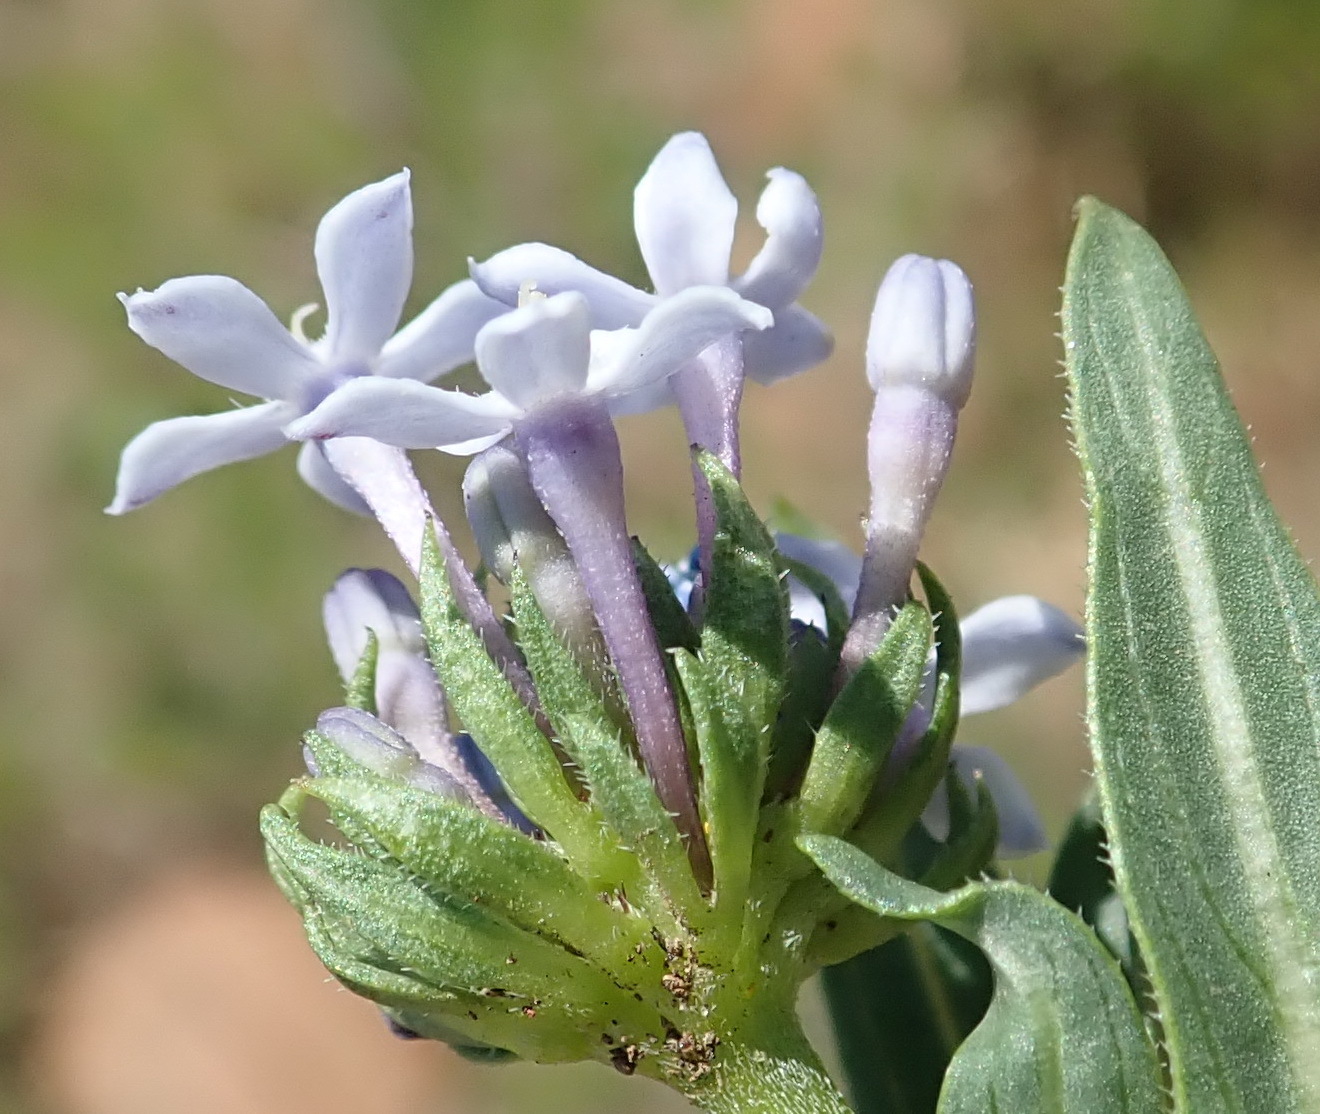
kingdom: Plantae
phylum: Tracheophyta
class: Magnoliopsida
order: Gentianales
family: Rubiaceae
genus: Pentanisia
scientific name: Pentanisia angustifolia
